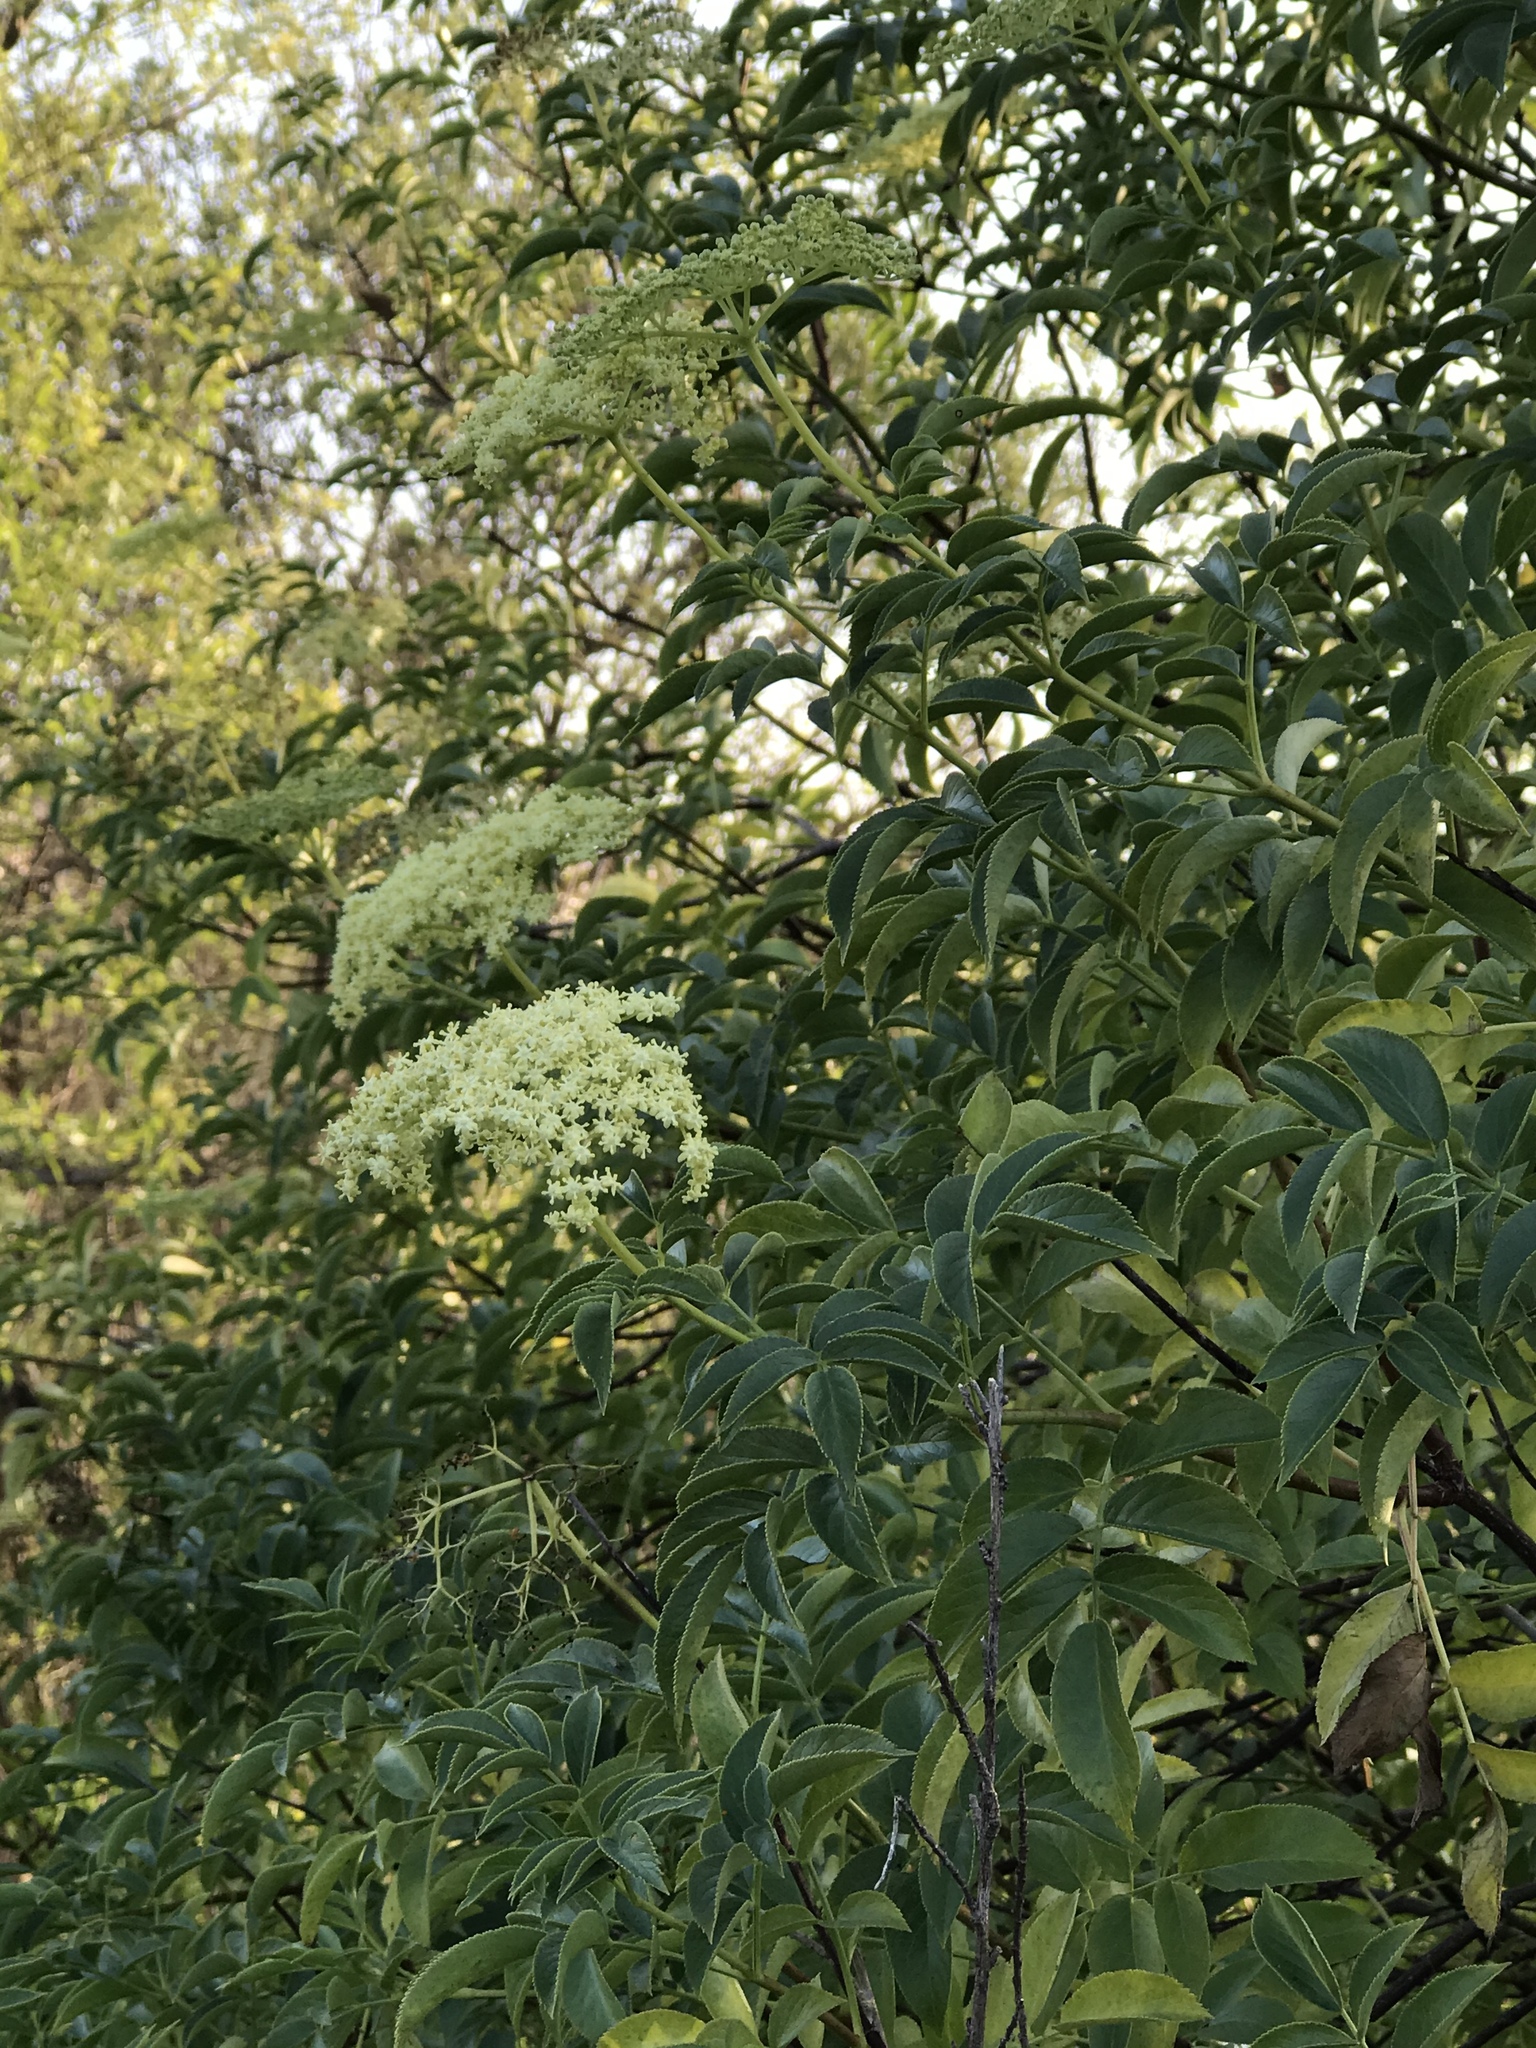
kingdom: Plantae
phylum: Tracheophyta
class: Magnoliopsida
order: Dipsacales
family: Viburnaceae
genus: Sambucus
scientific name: Sambucus cerulea
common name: Blue elder
